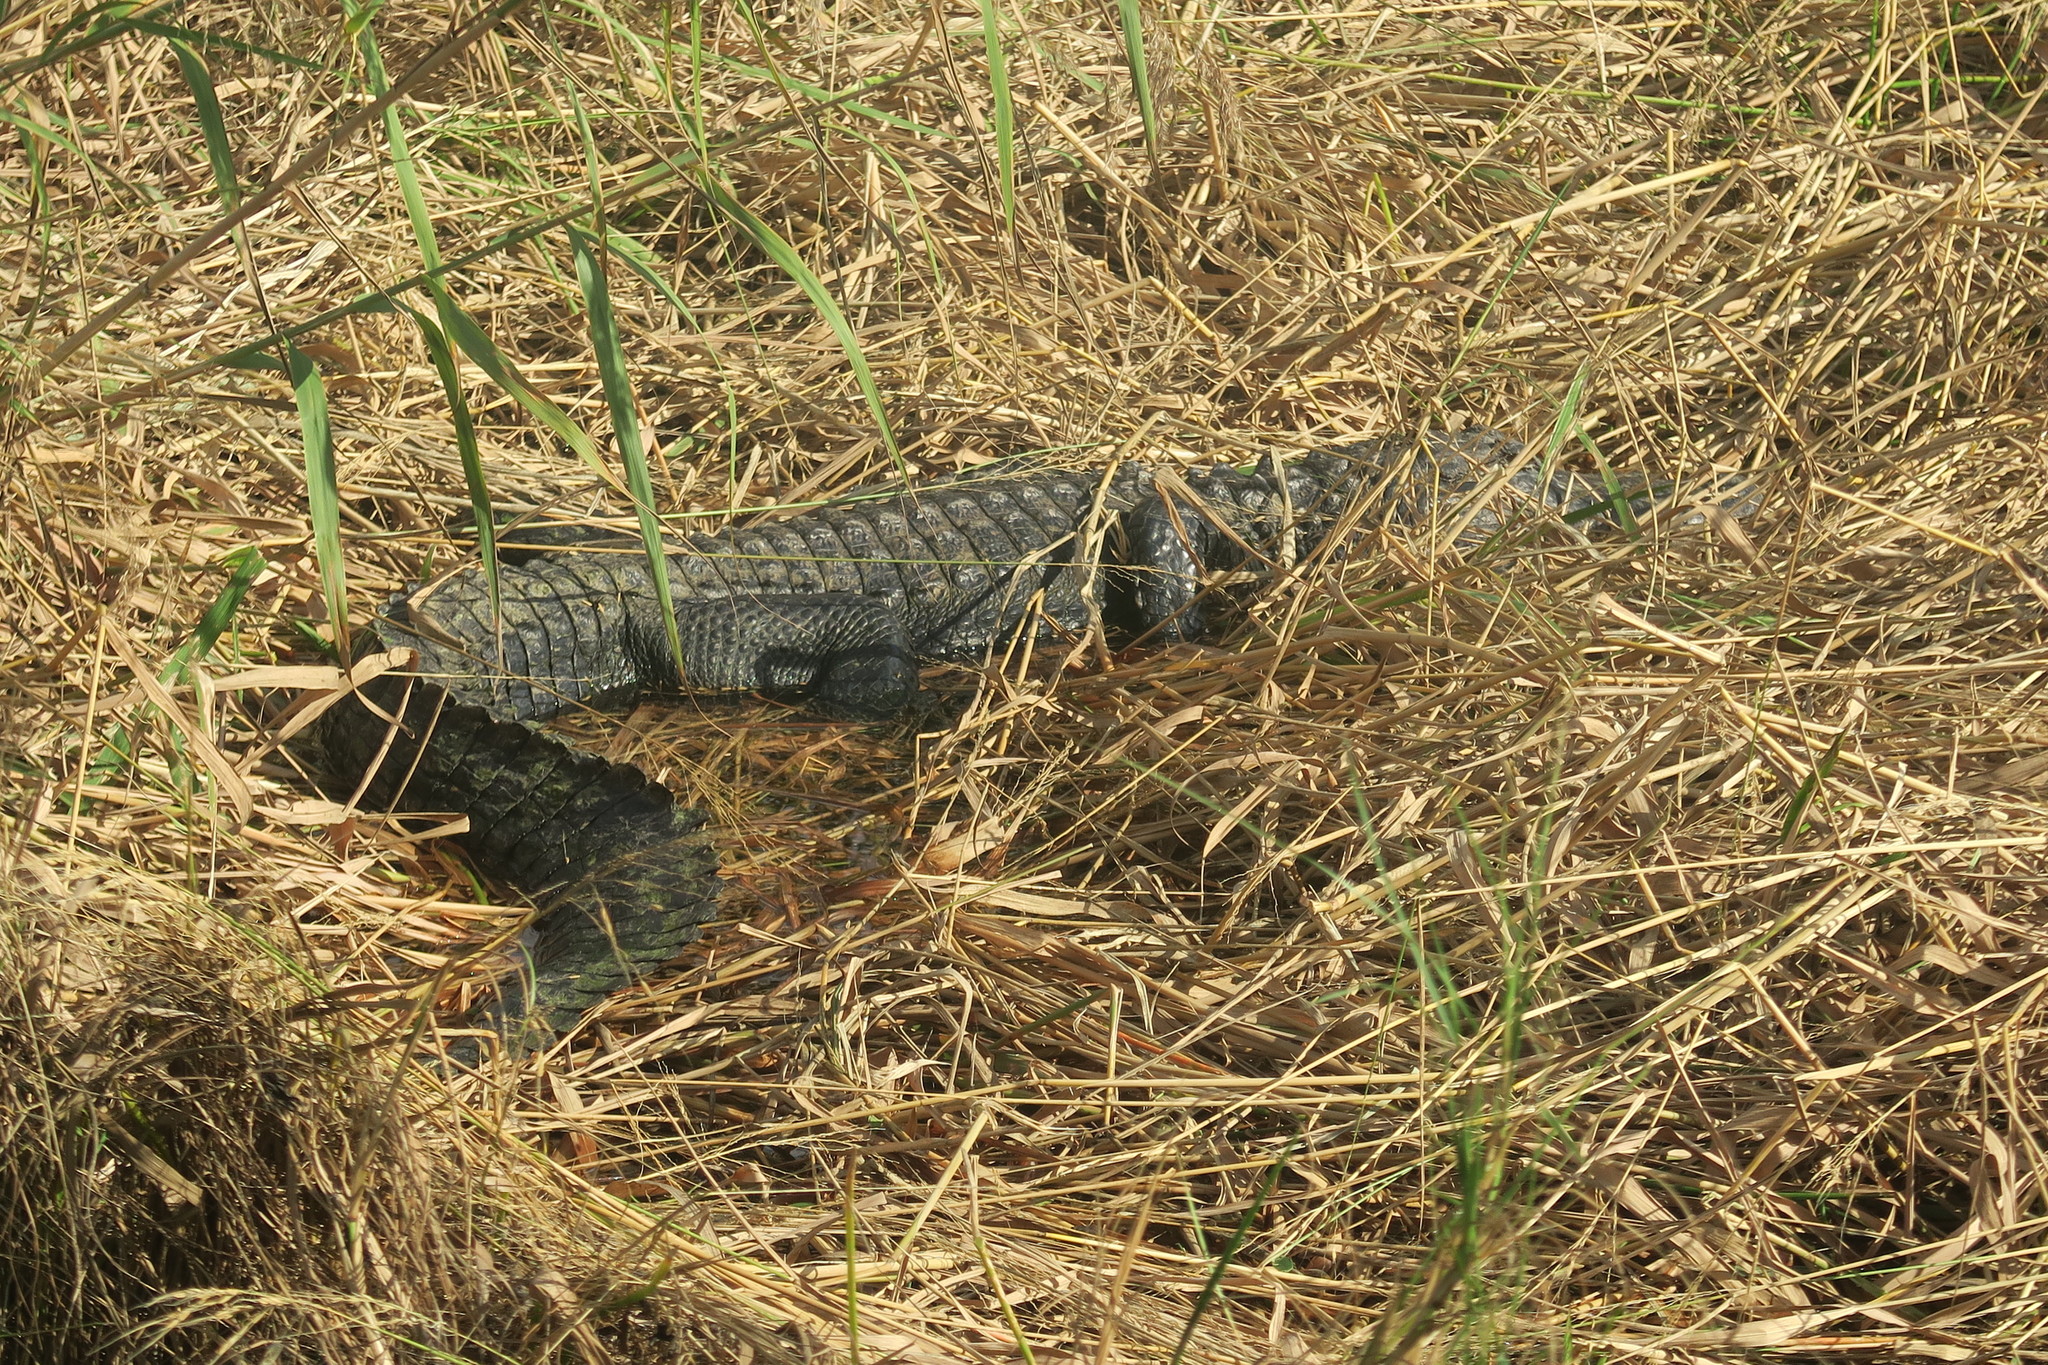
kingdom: Animalia
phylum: Chordata
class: Crocodylia
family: Alligatoridae
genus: Alligator
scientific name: Alligator mississippiensis
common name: American alligator
